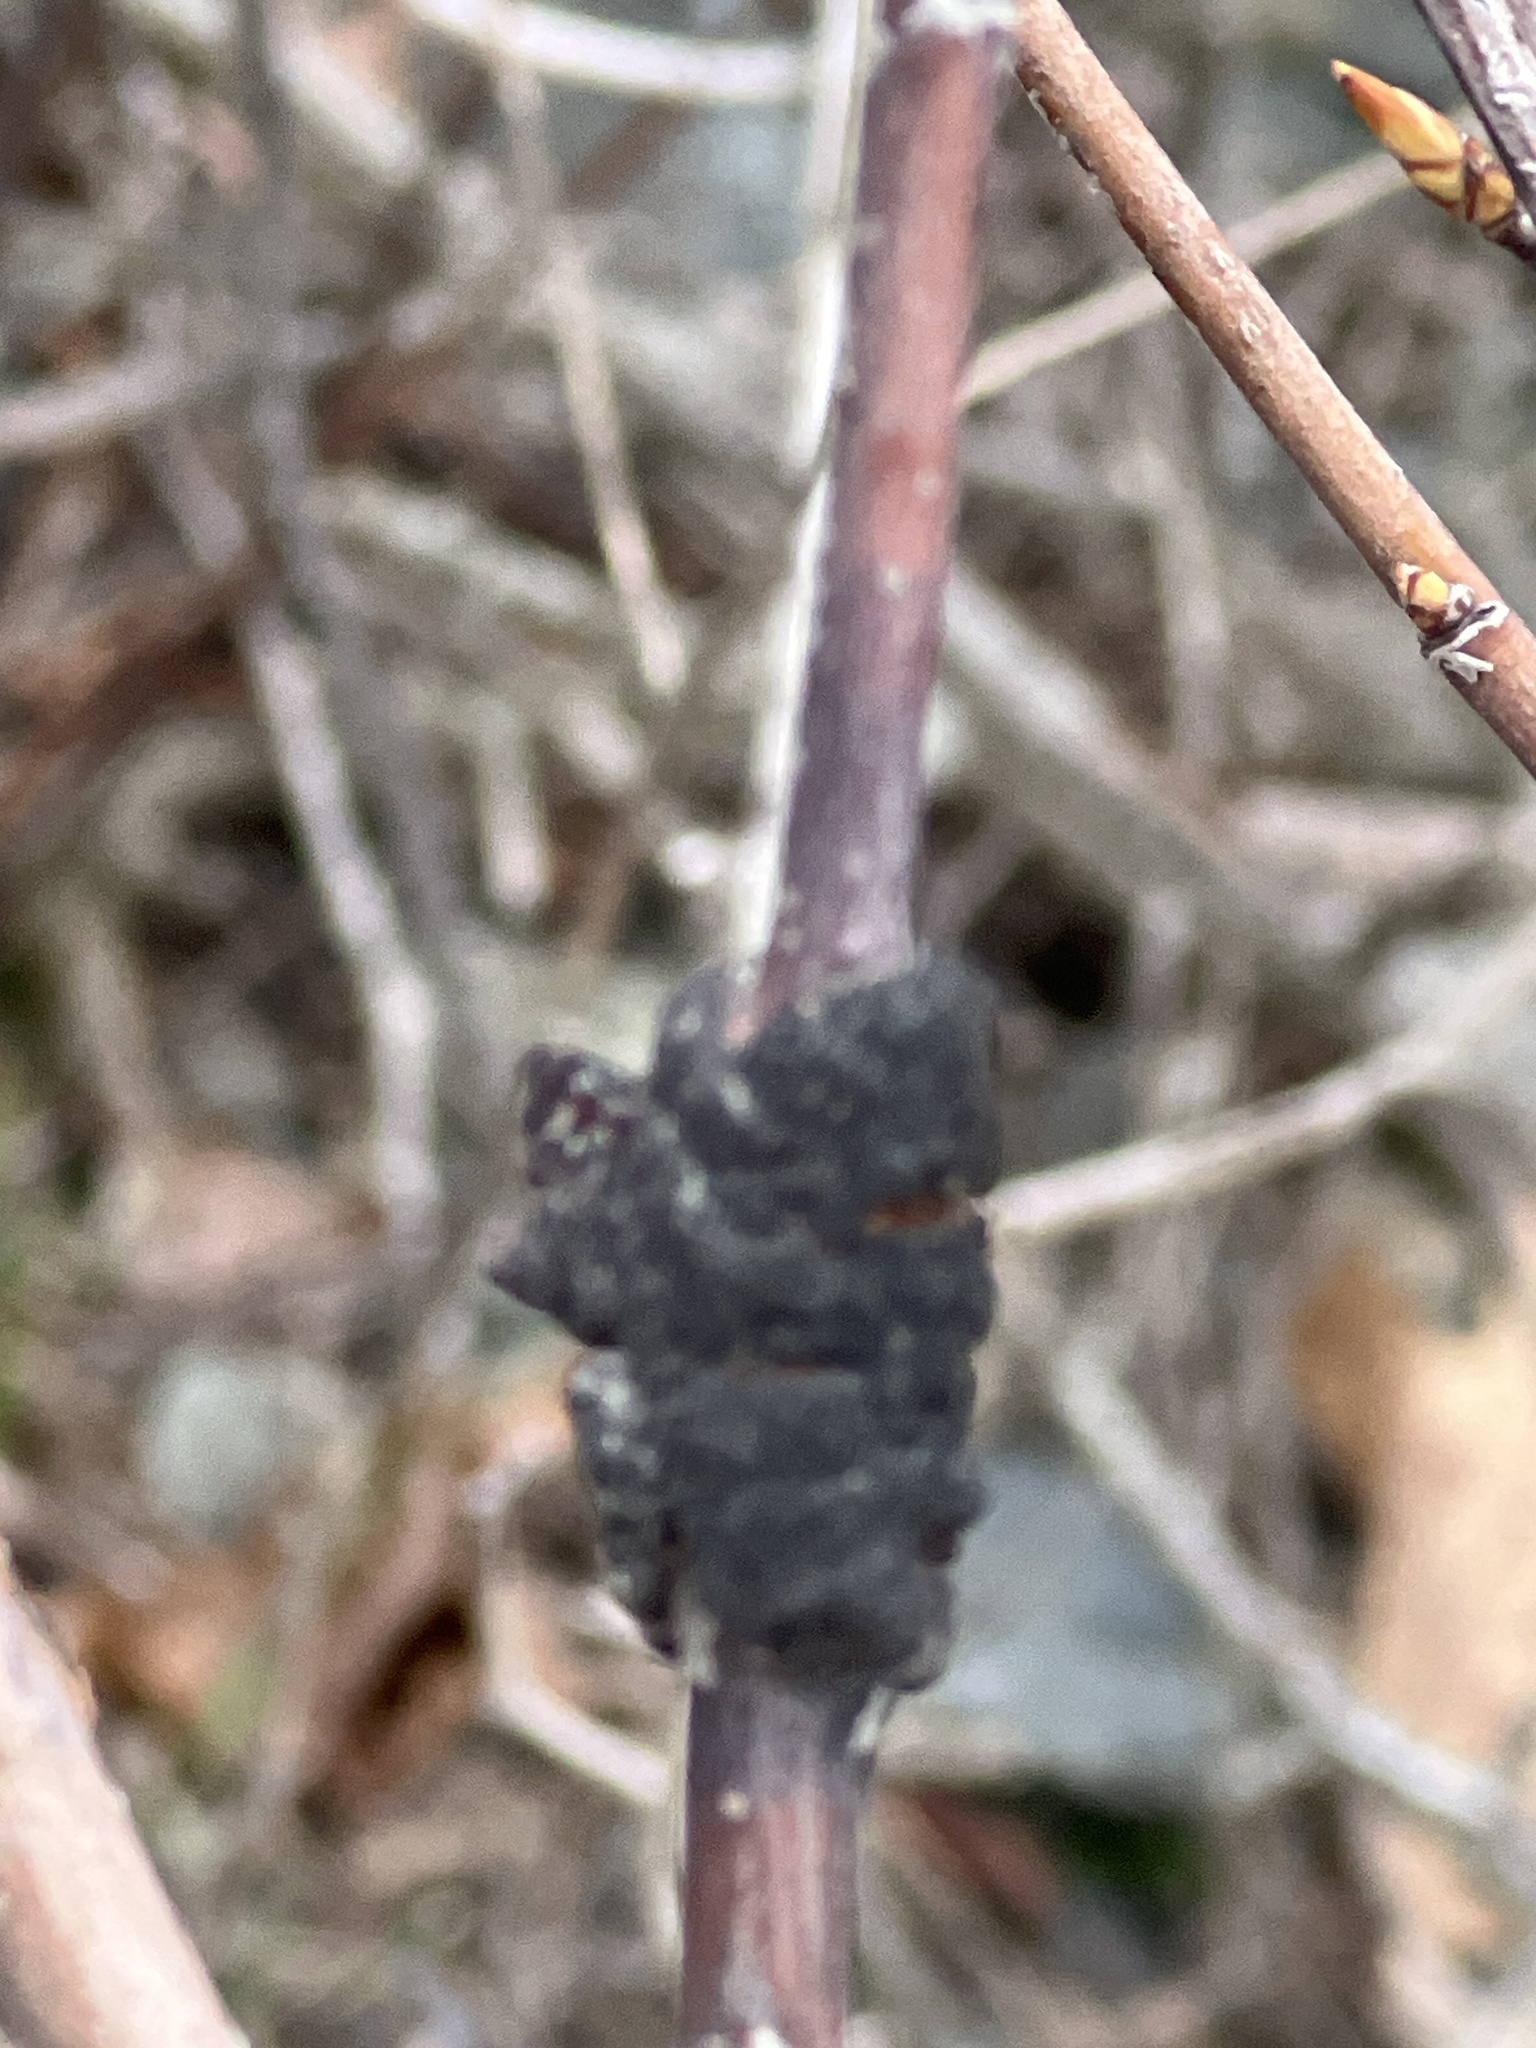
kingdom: Fungi
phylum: Ascomycota
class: Dothideomycetes
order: Venturiales
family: Venturiaceae
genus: Apiosporina
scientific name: Apiosporina morbosa
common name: Black knot
